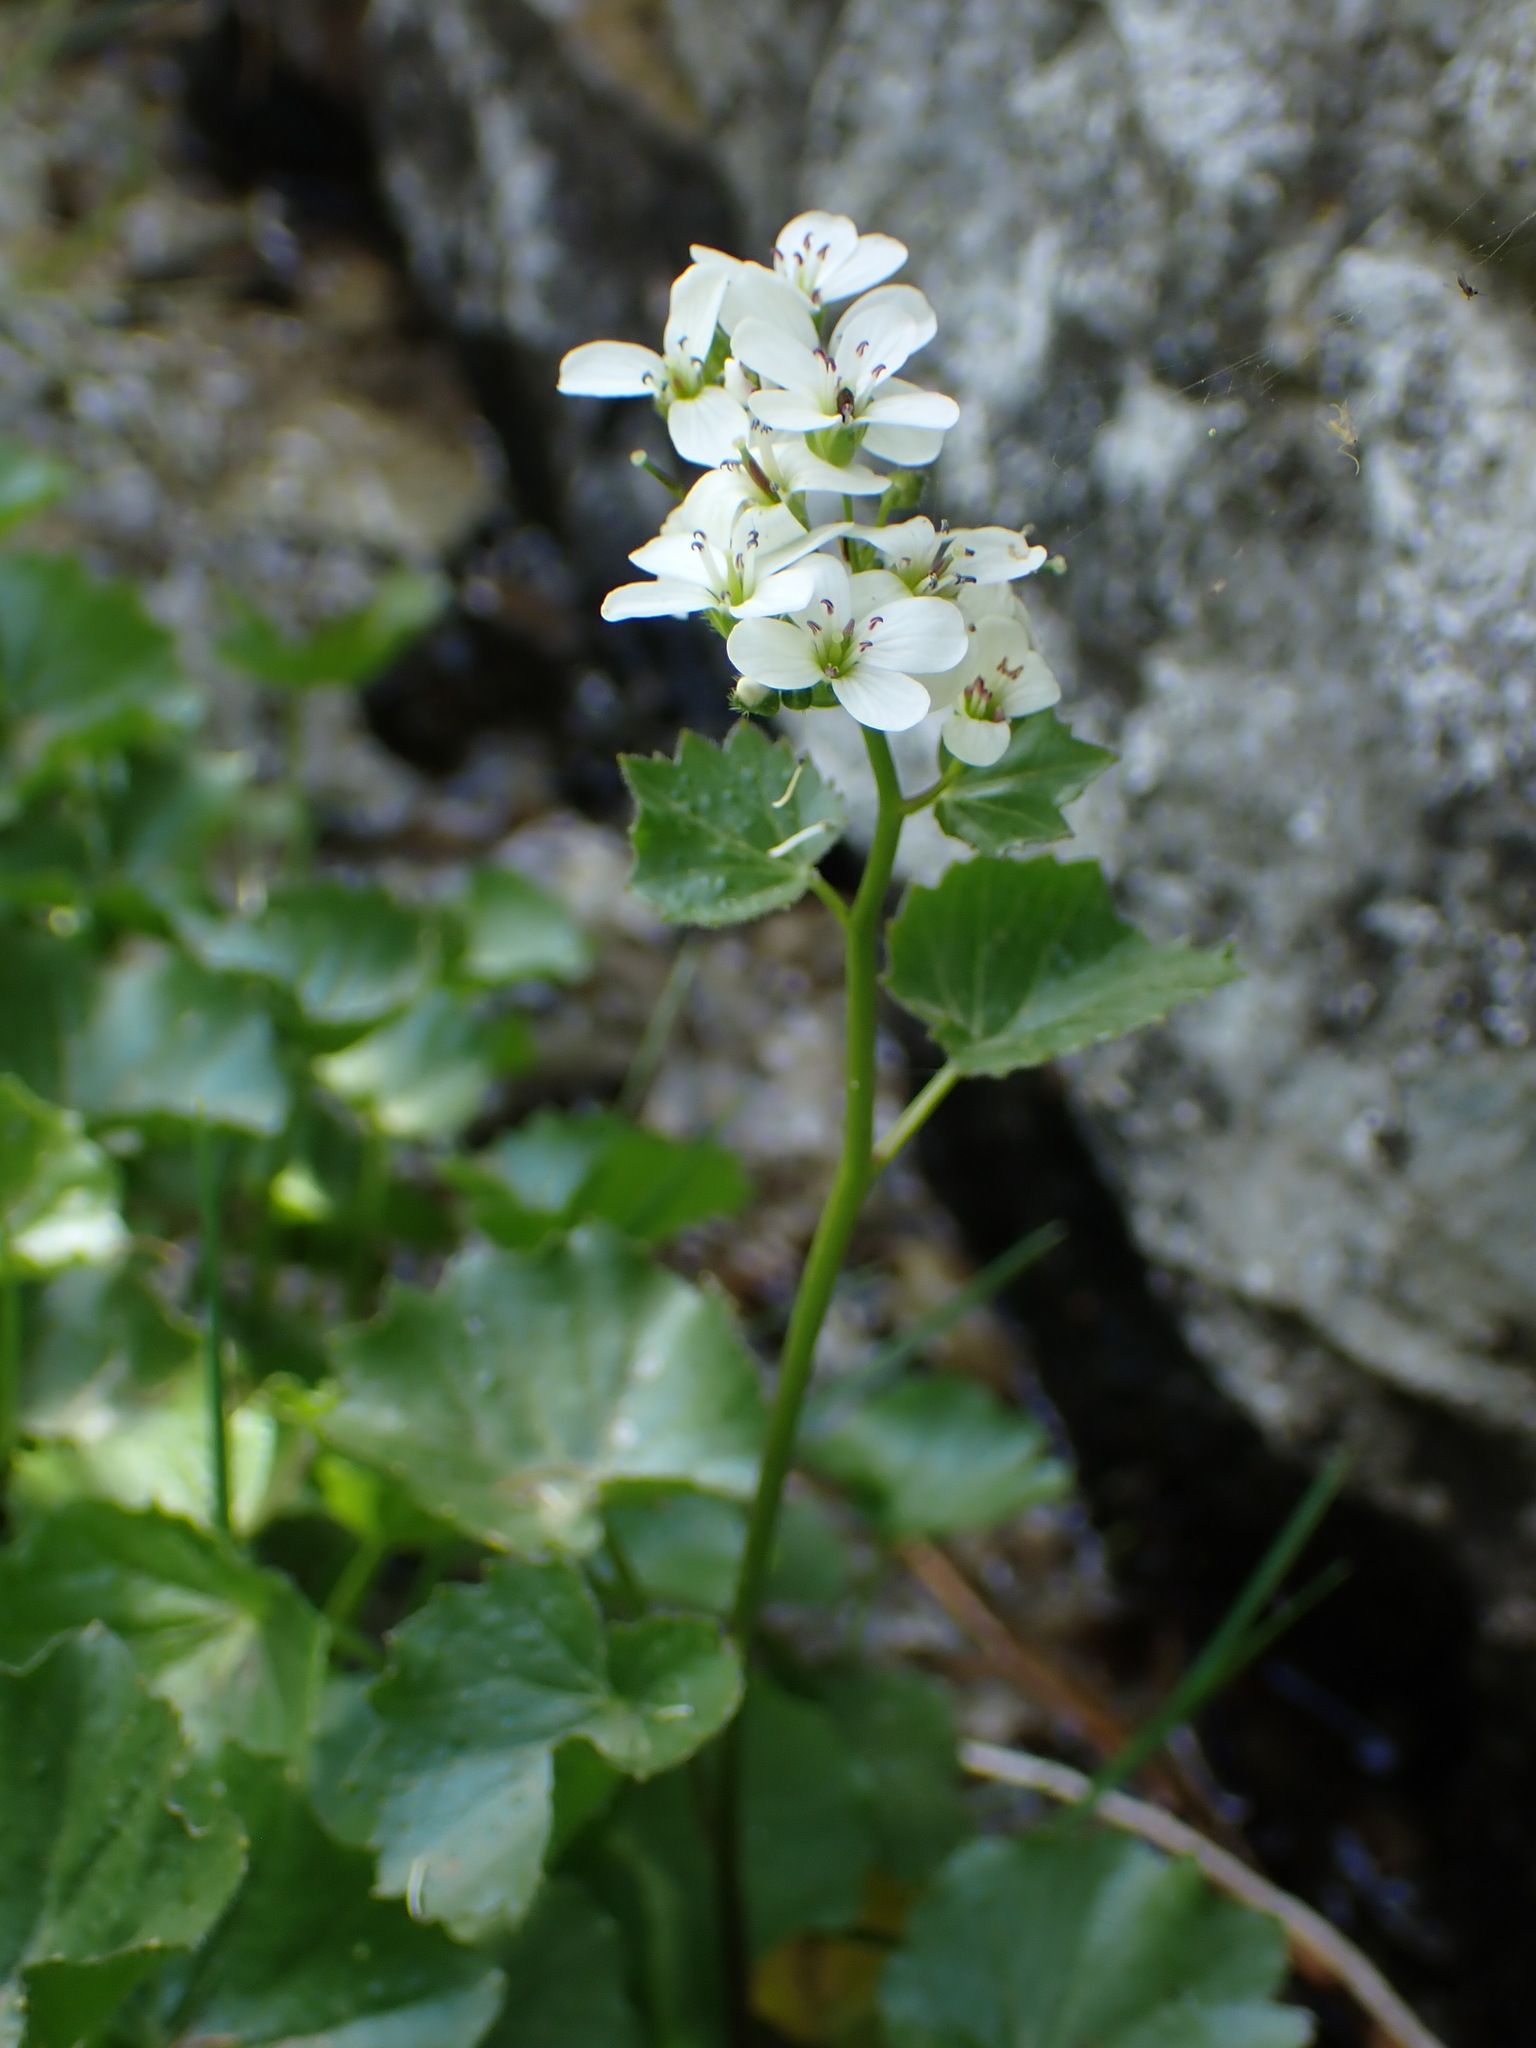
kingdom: Plantae
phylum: Tracheophyta
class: Magnoliopsida
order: Brassicales
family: Brassicaceae
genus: Cardamine
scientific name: Cardamine asarifolia
